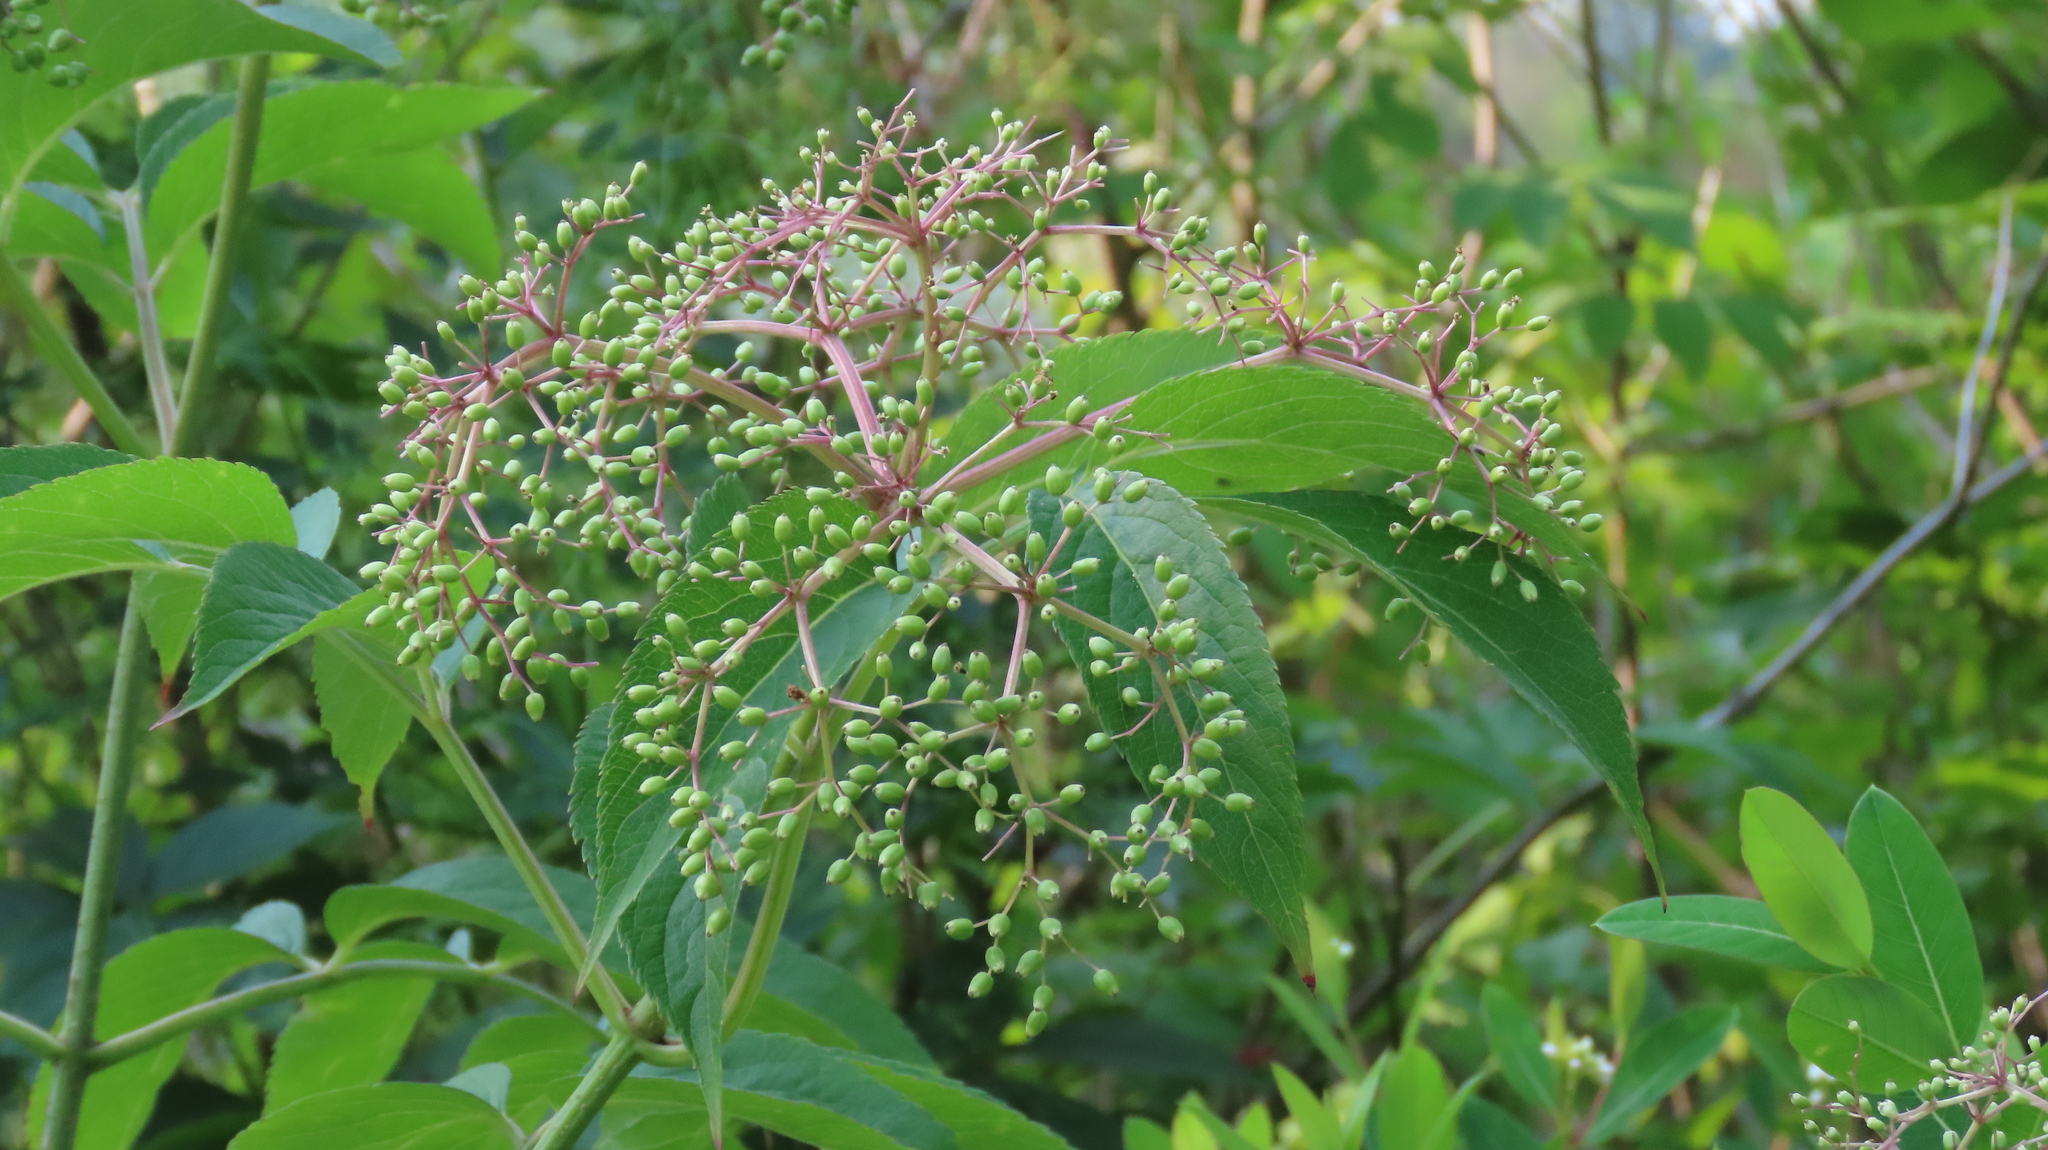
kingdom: Plantae
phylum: Tracheophyta
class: Magnoliopsida
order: Dipsacales
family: Viburnaceae
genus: Sambucus
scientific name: Sambucus canadensis
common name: American elder
